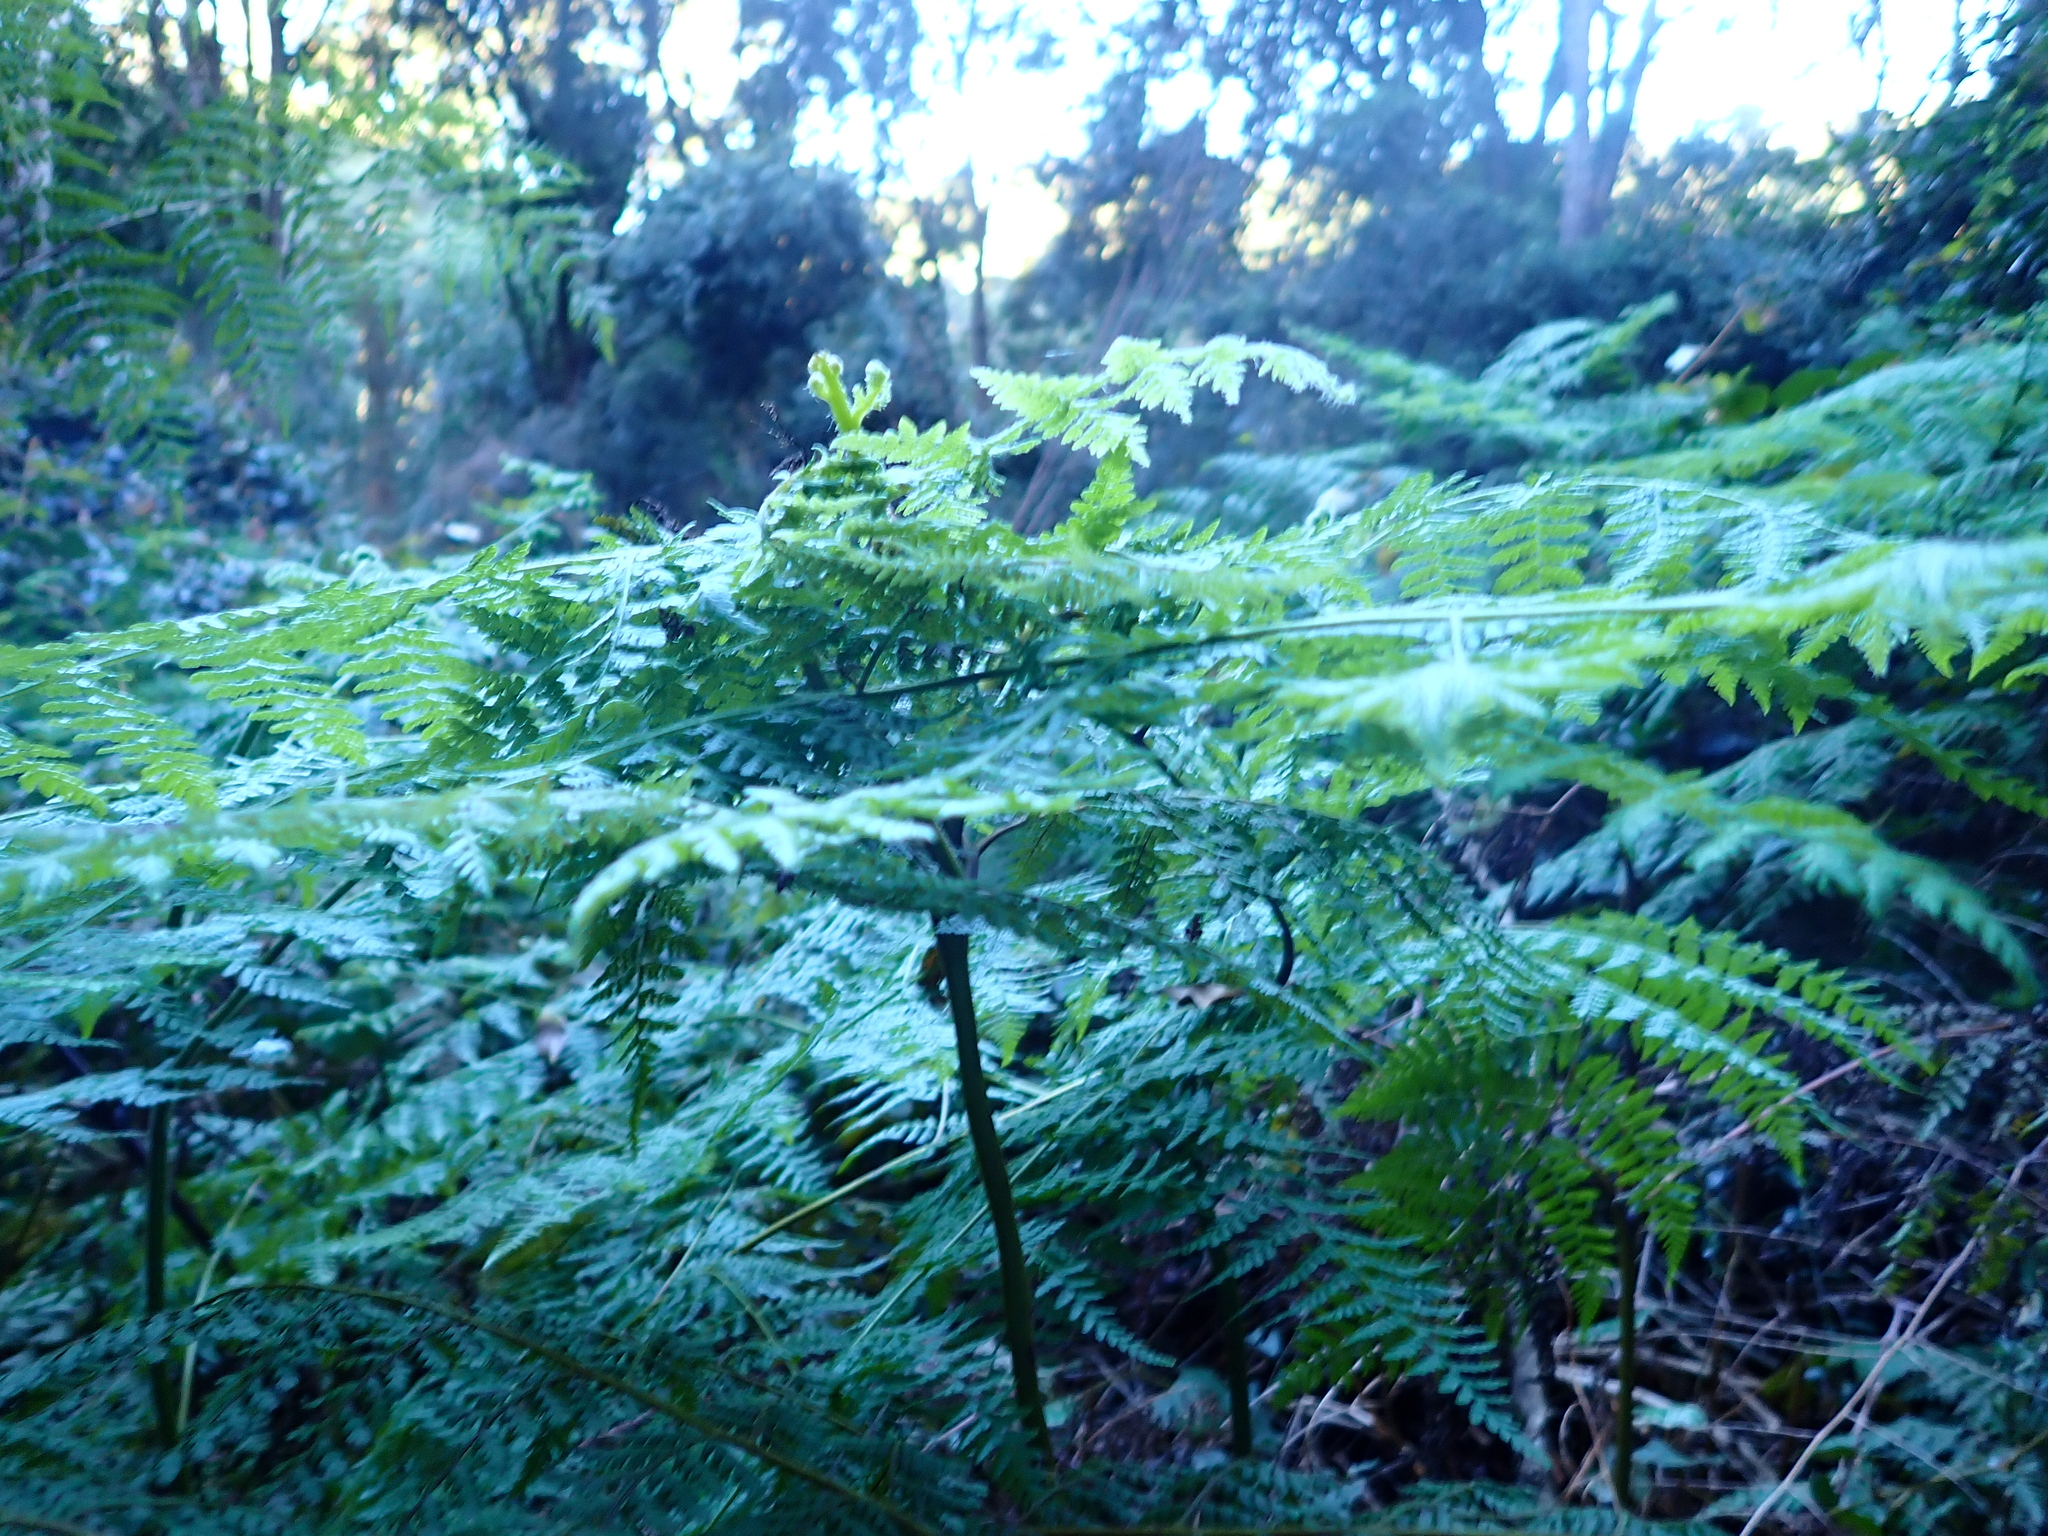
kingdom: Plantae
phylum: Tracheophyta
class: Polypodiopsida
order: Polypodiales
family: Dennstaedtiaceae
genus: Hypolepis
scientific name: Hypolepis sparsisora
